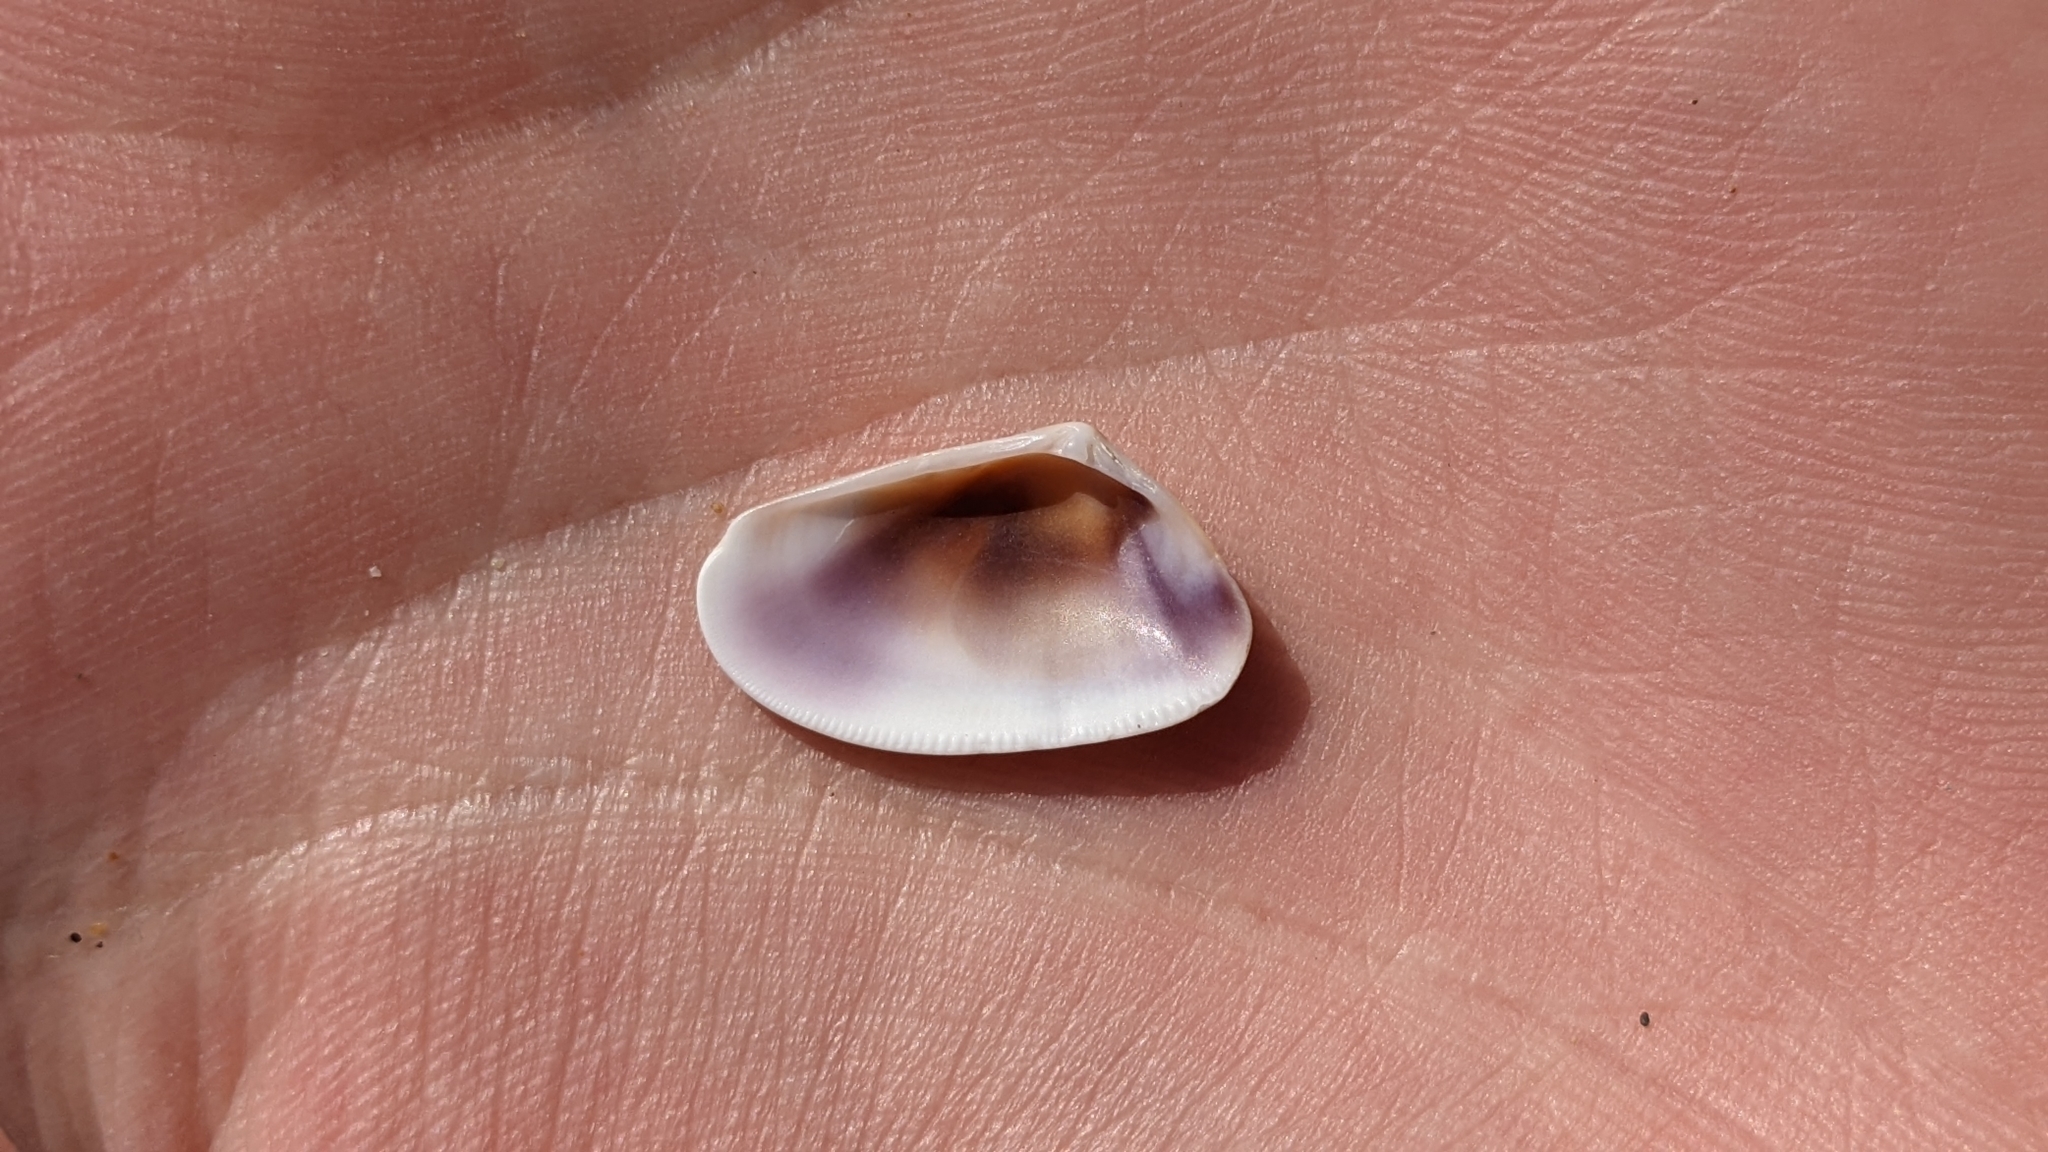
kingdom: Animalia
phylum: Mollusca
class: Bivalvia
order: Cardiida
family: Donacidae
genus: Donax
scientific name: Donax trunculus
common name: Truncate donax
